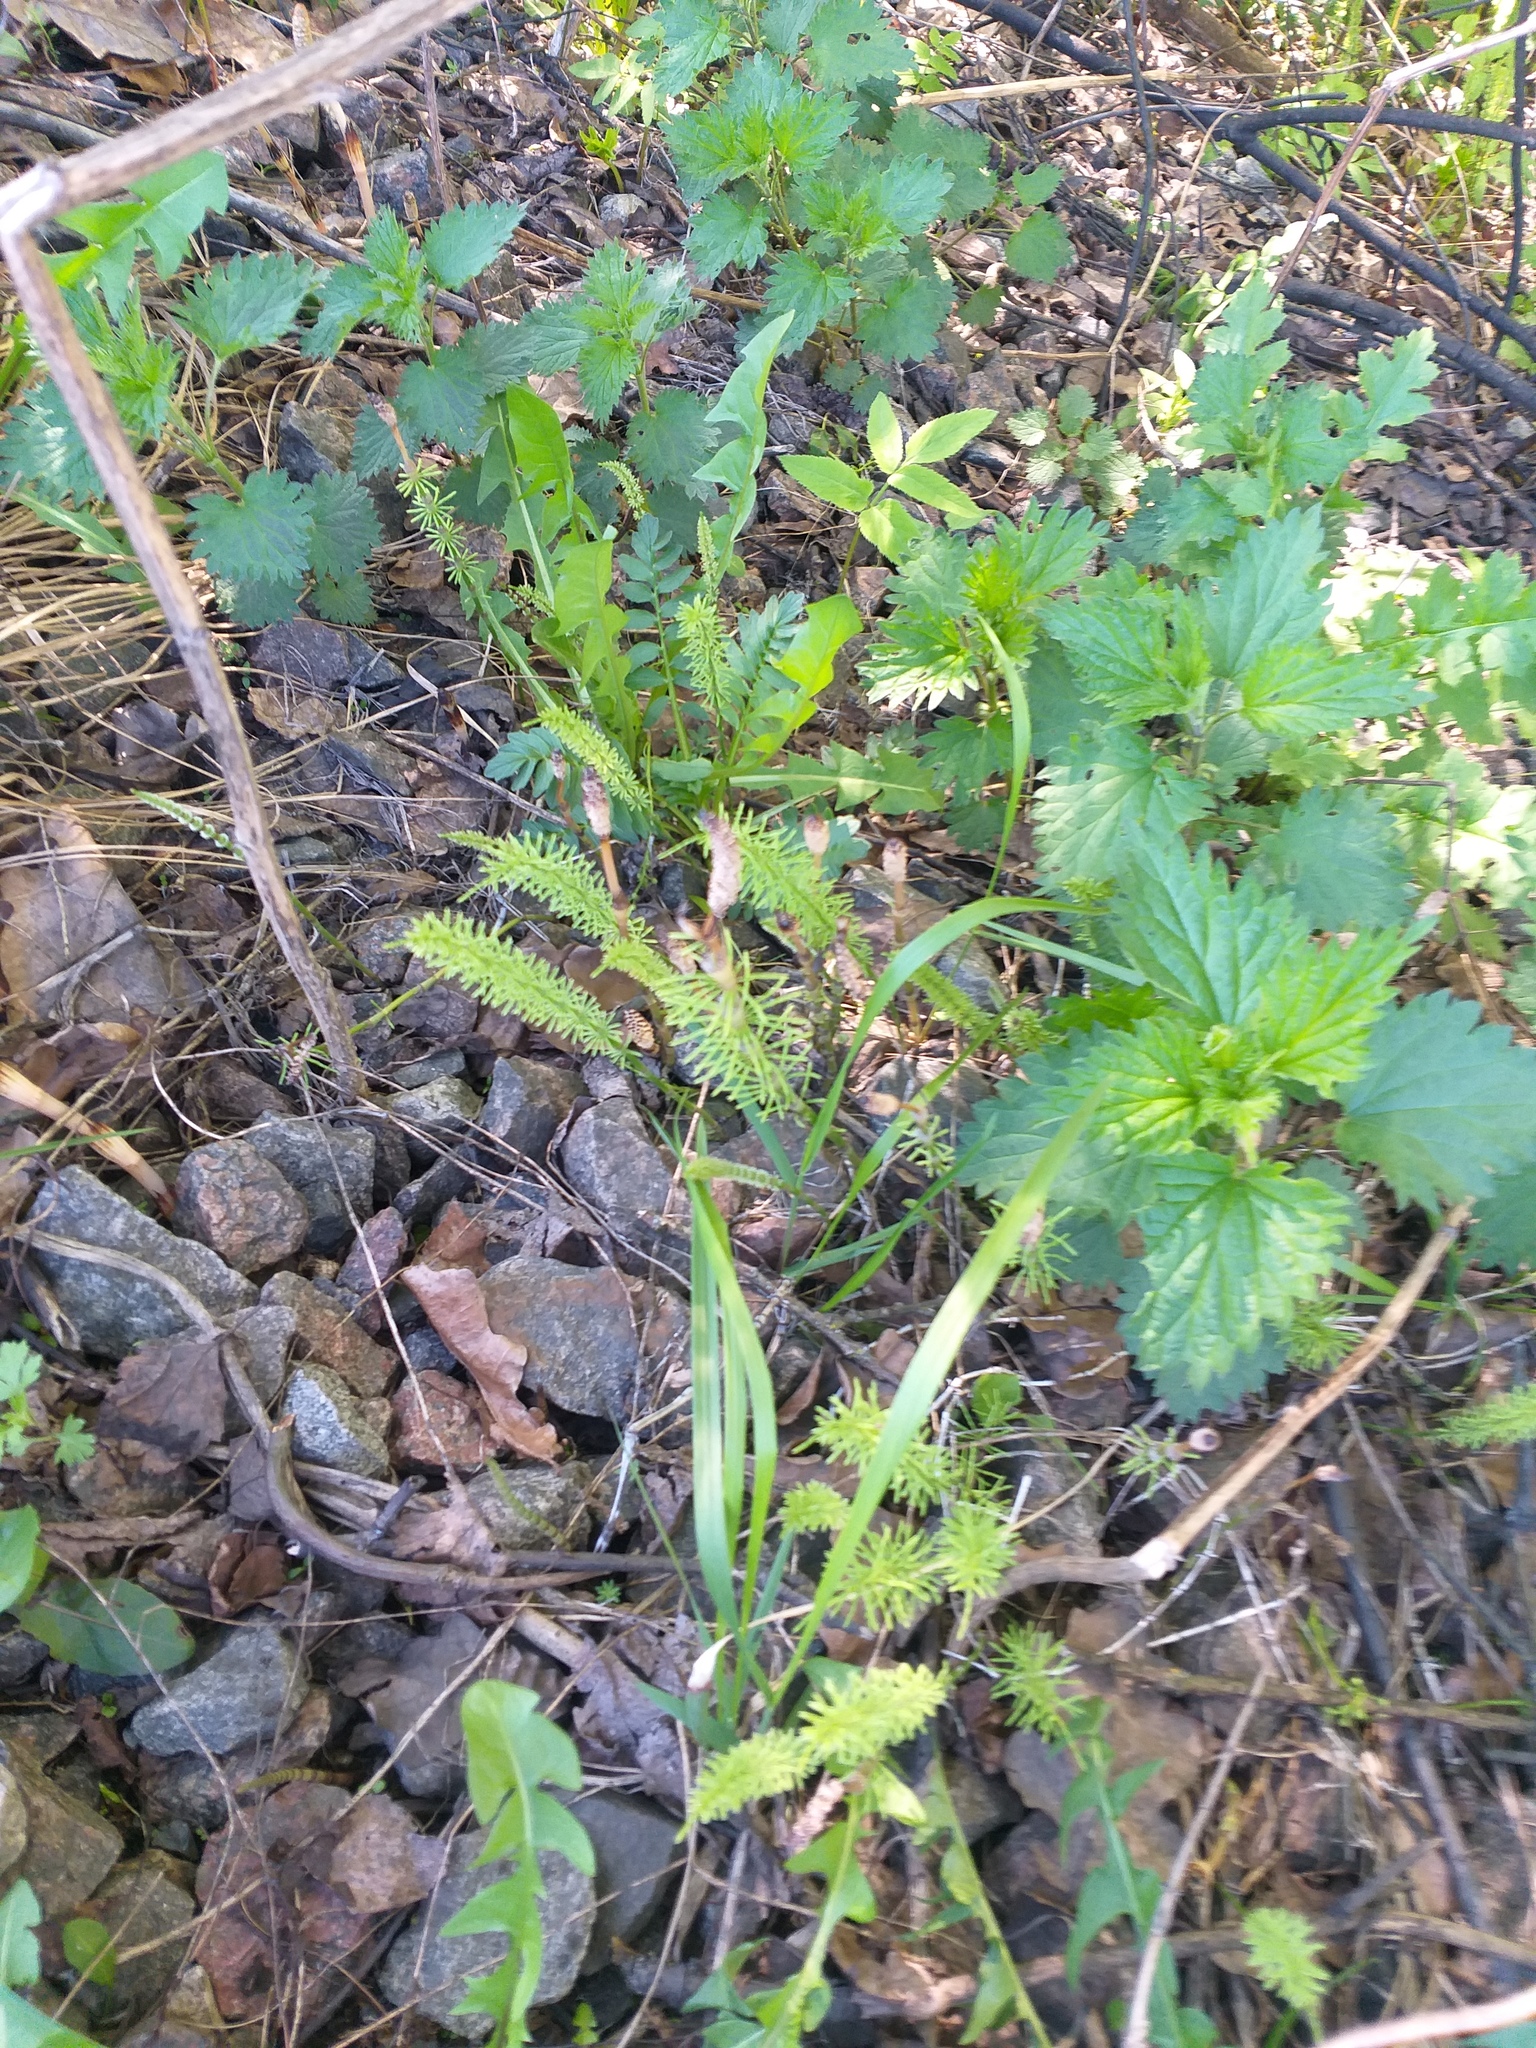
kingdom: Plantae
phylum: Tracheophyta
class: Polypodiopsida
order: Equisetales
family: Equisetaceae
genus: Equisetum
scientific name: Equisetum pratense
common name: Meadow horsetail
